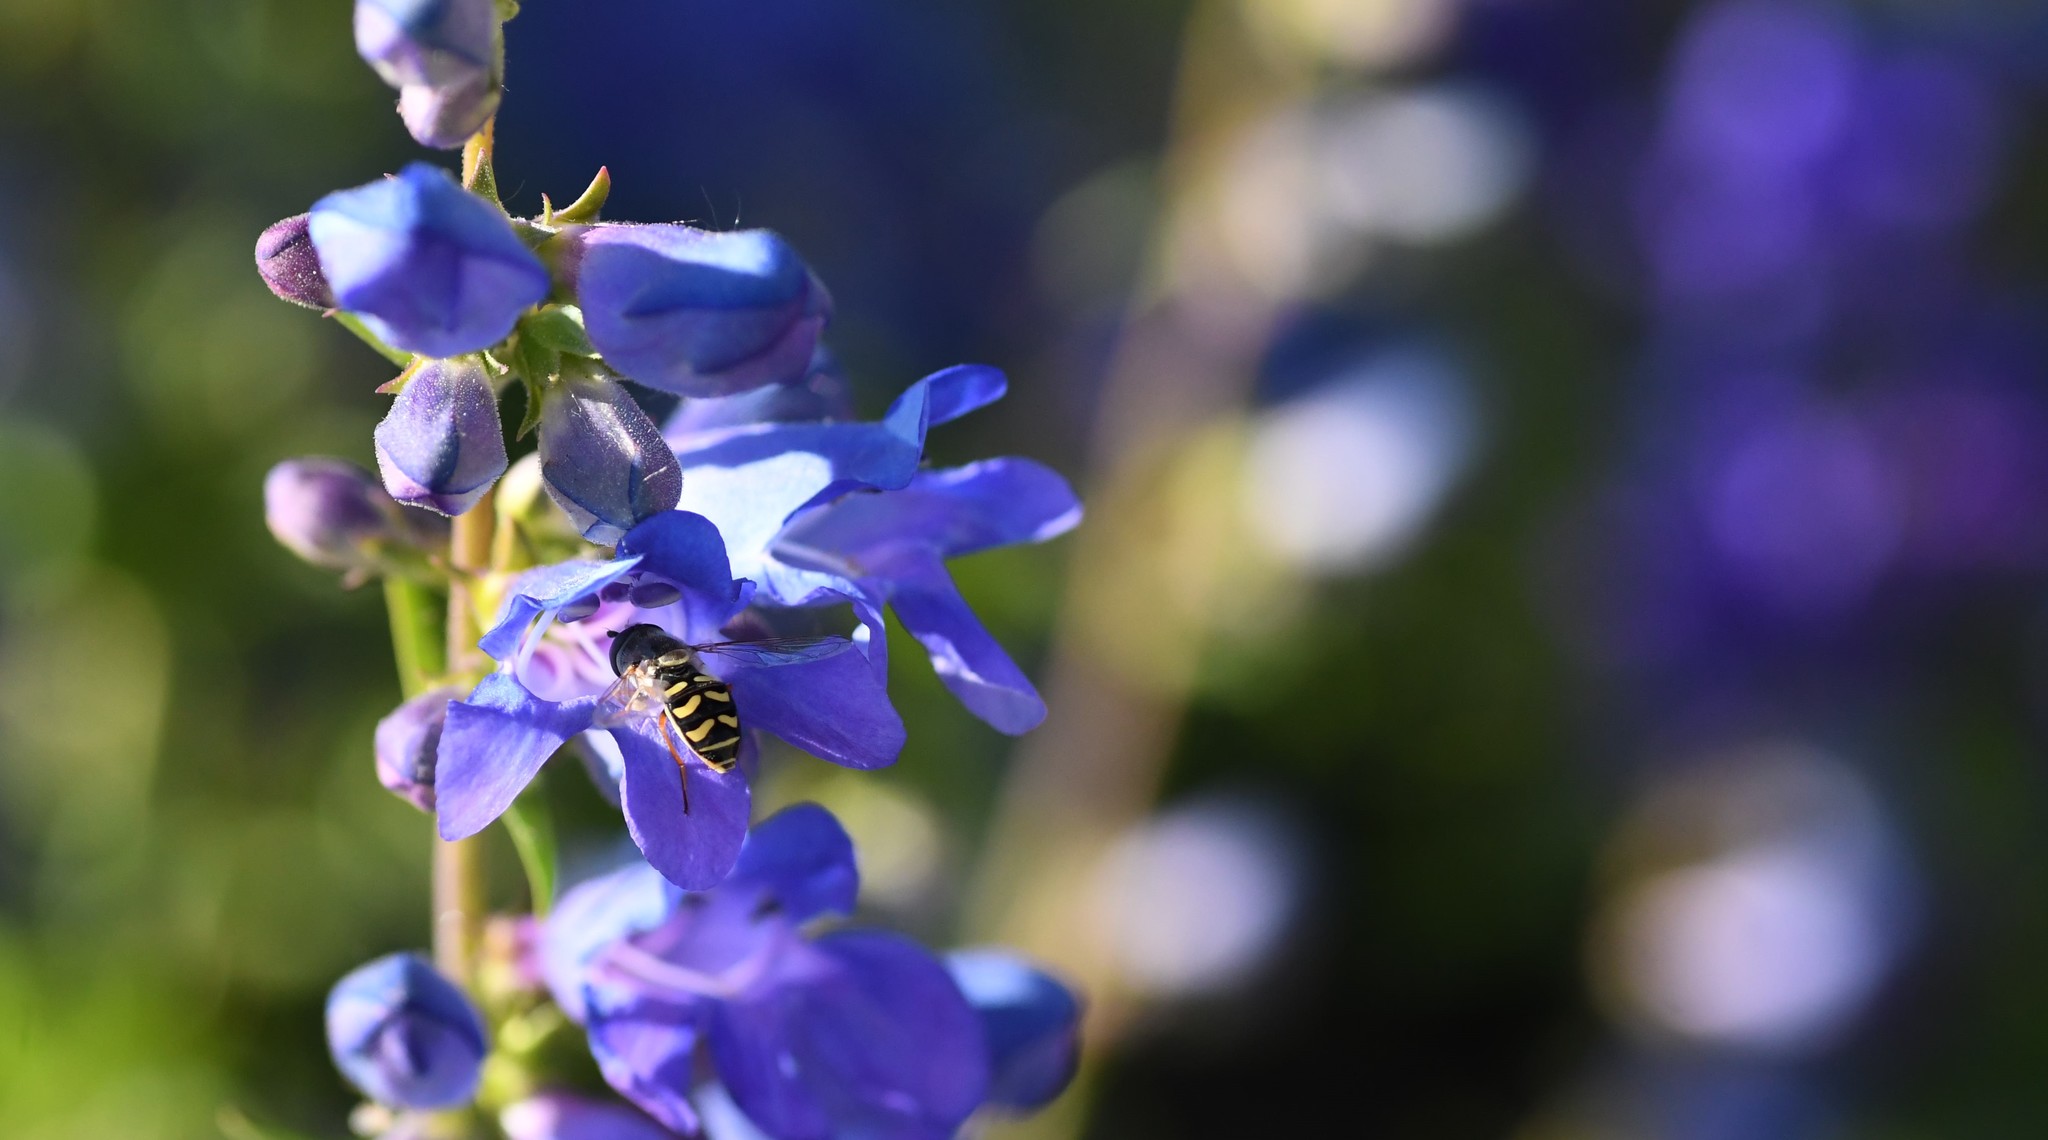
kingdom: Animalia
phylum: Arthropoda
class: Insecta
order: Diptera
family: Syrphidae
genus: Eupeodes
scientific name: Eupeodes volucris
